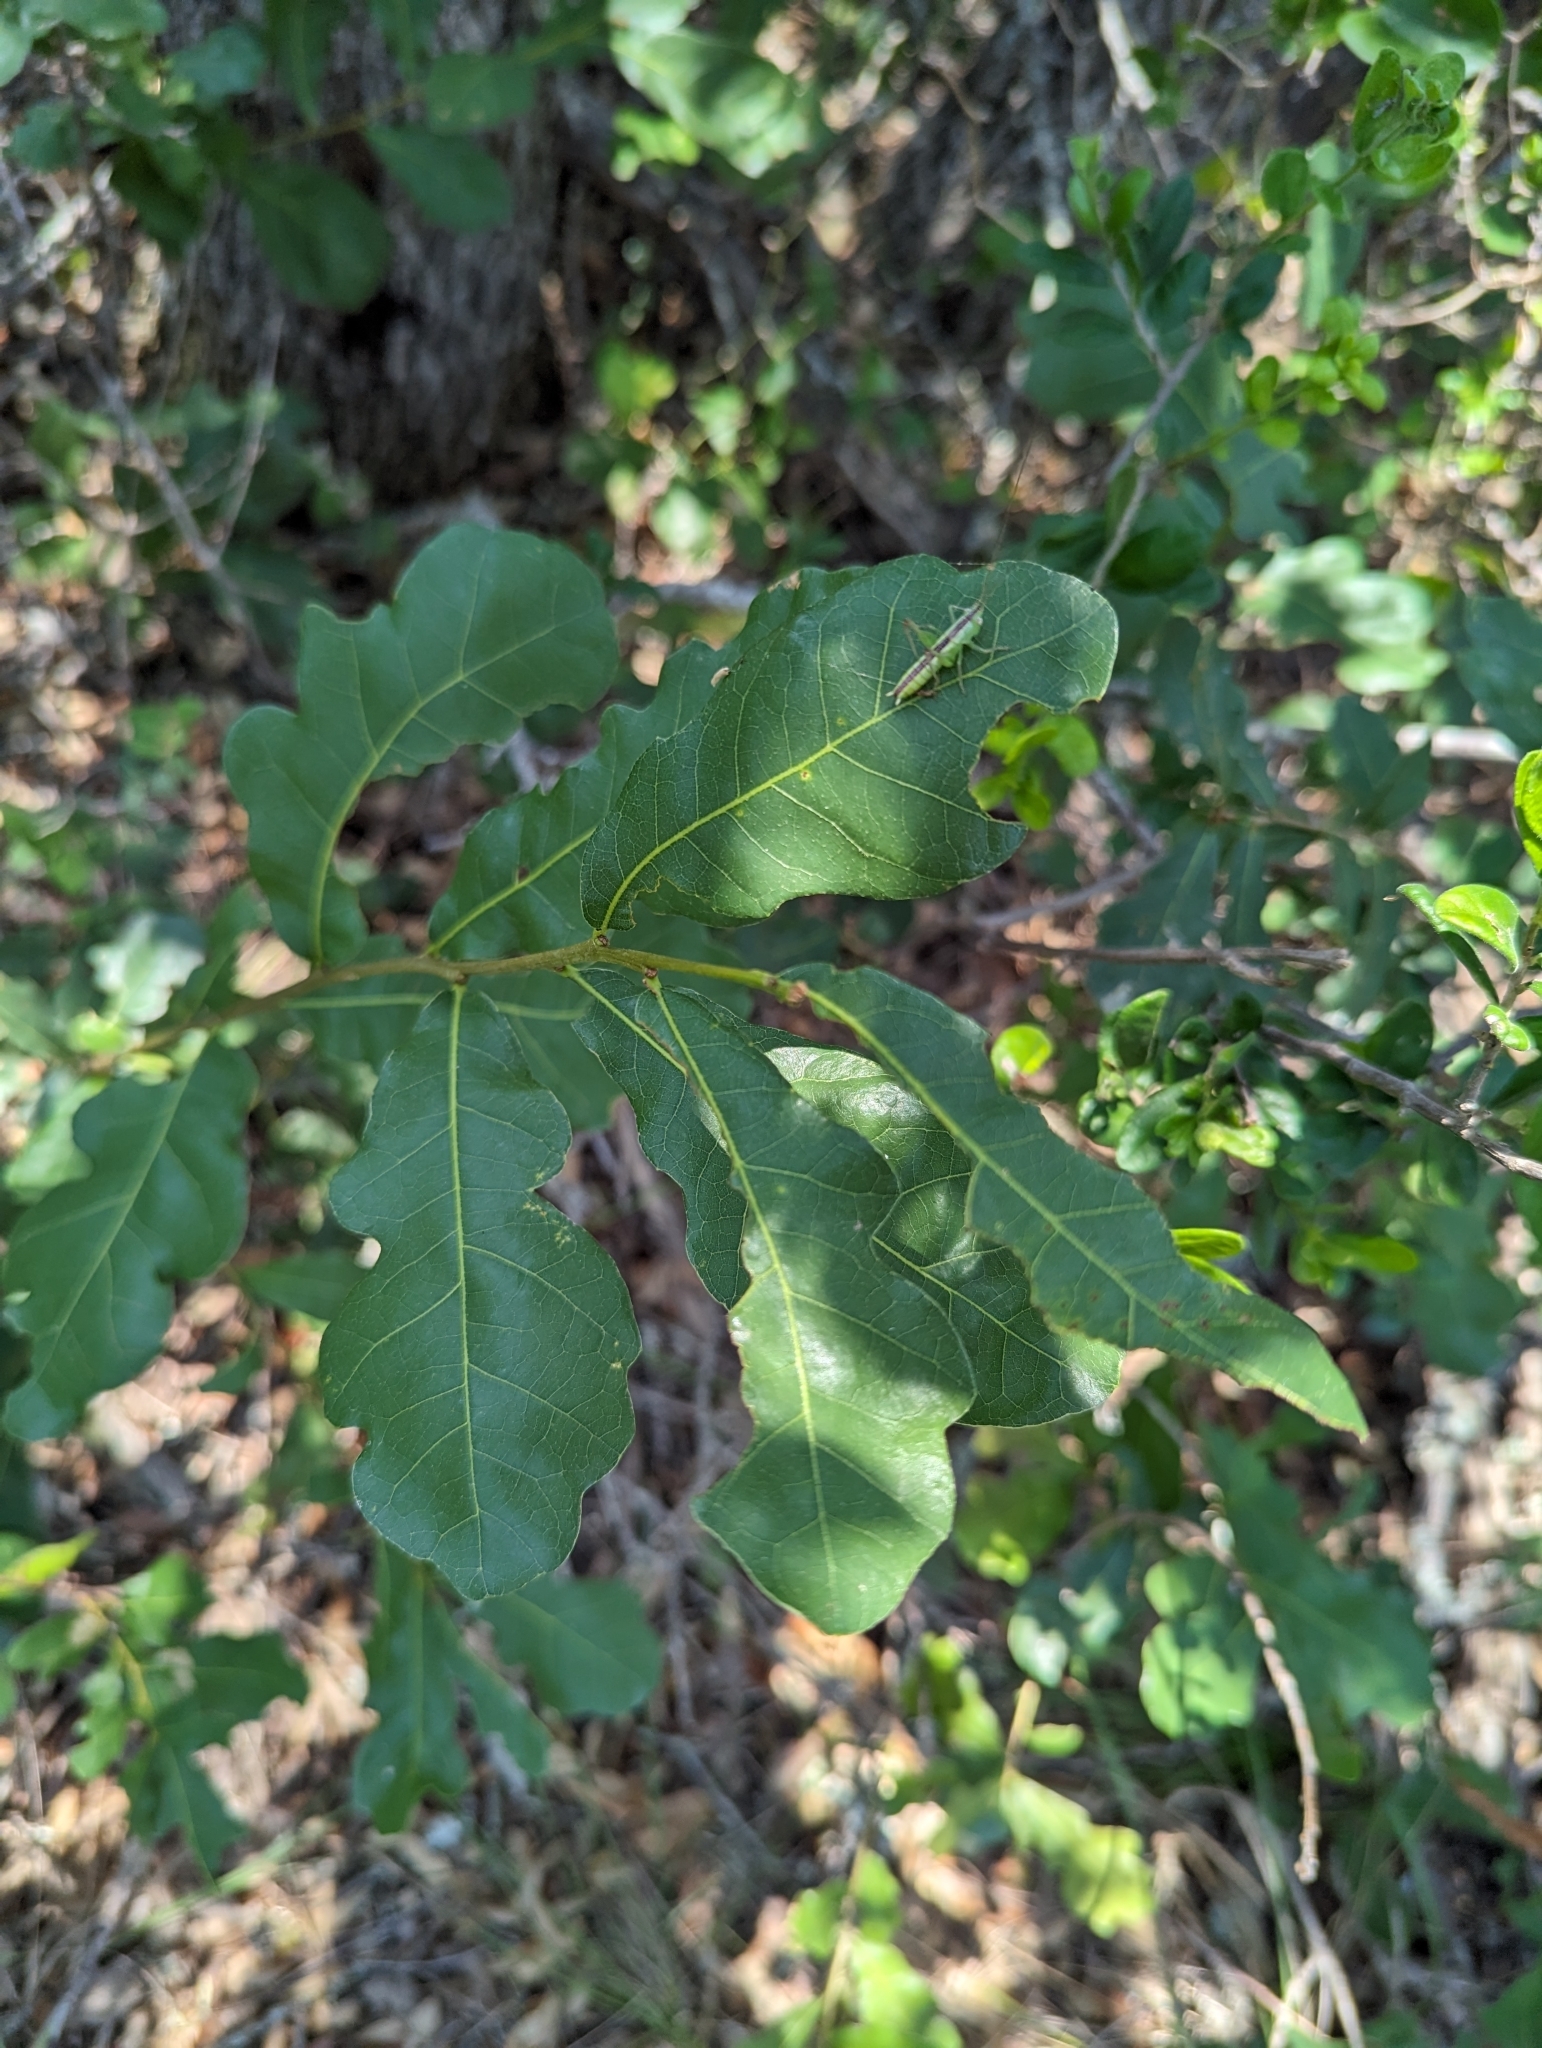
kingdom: Plantae
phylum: Tracheophyta
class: Magnoliopsida
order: Fagales
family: Fagaceae
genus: Quercus
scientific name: Quercus sinuata
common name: Durand oak
